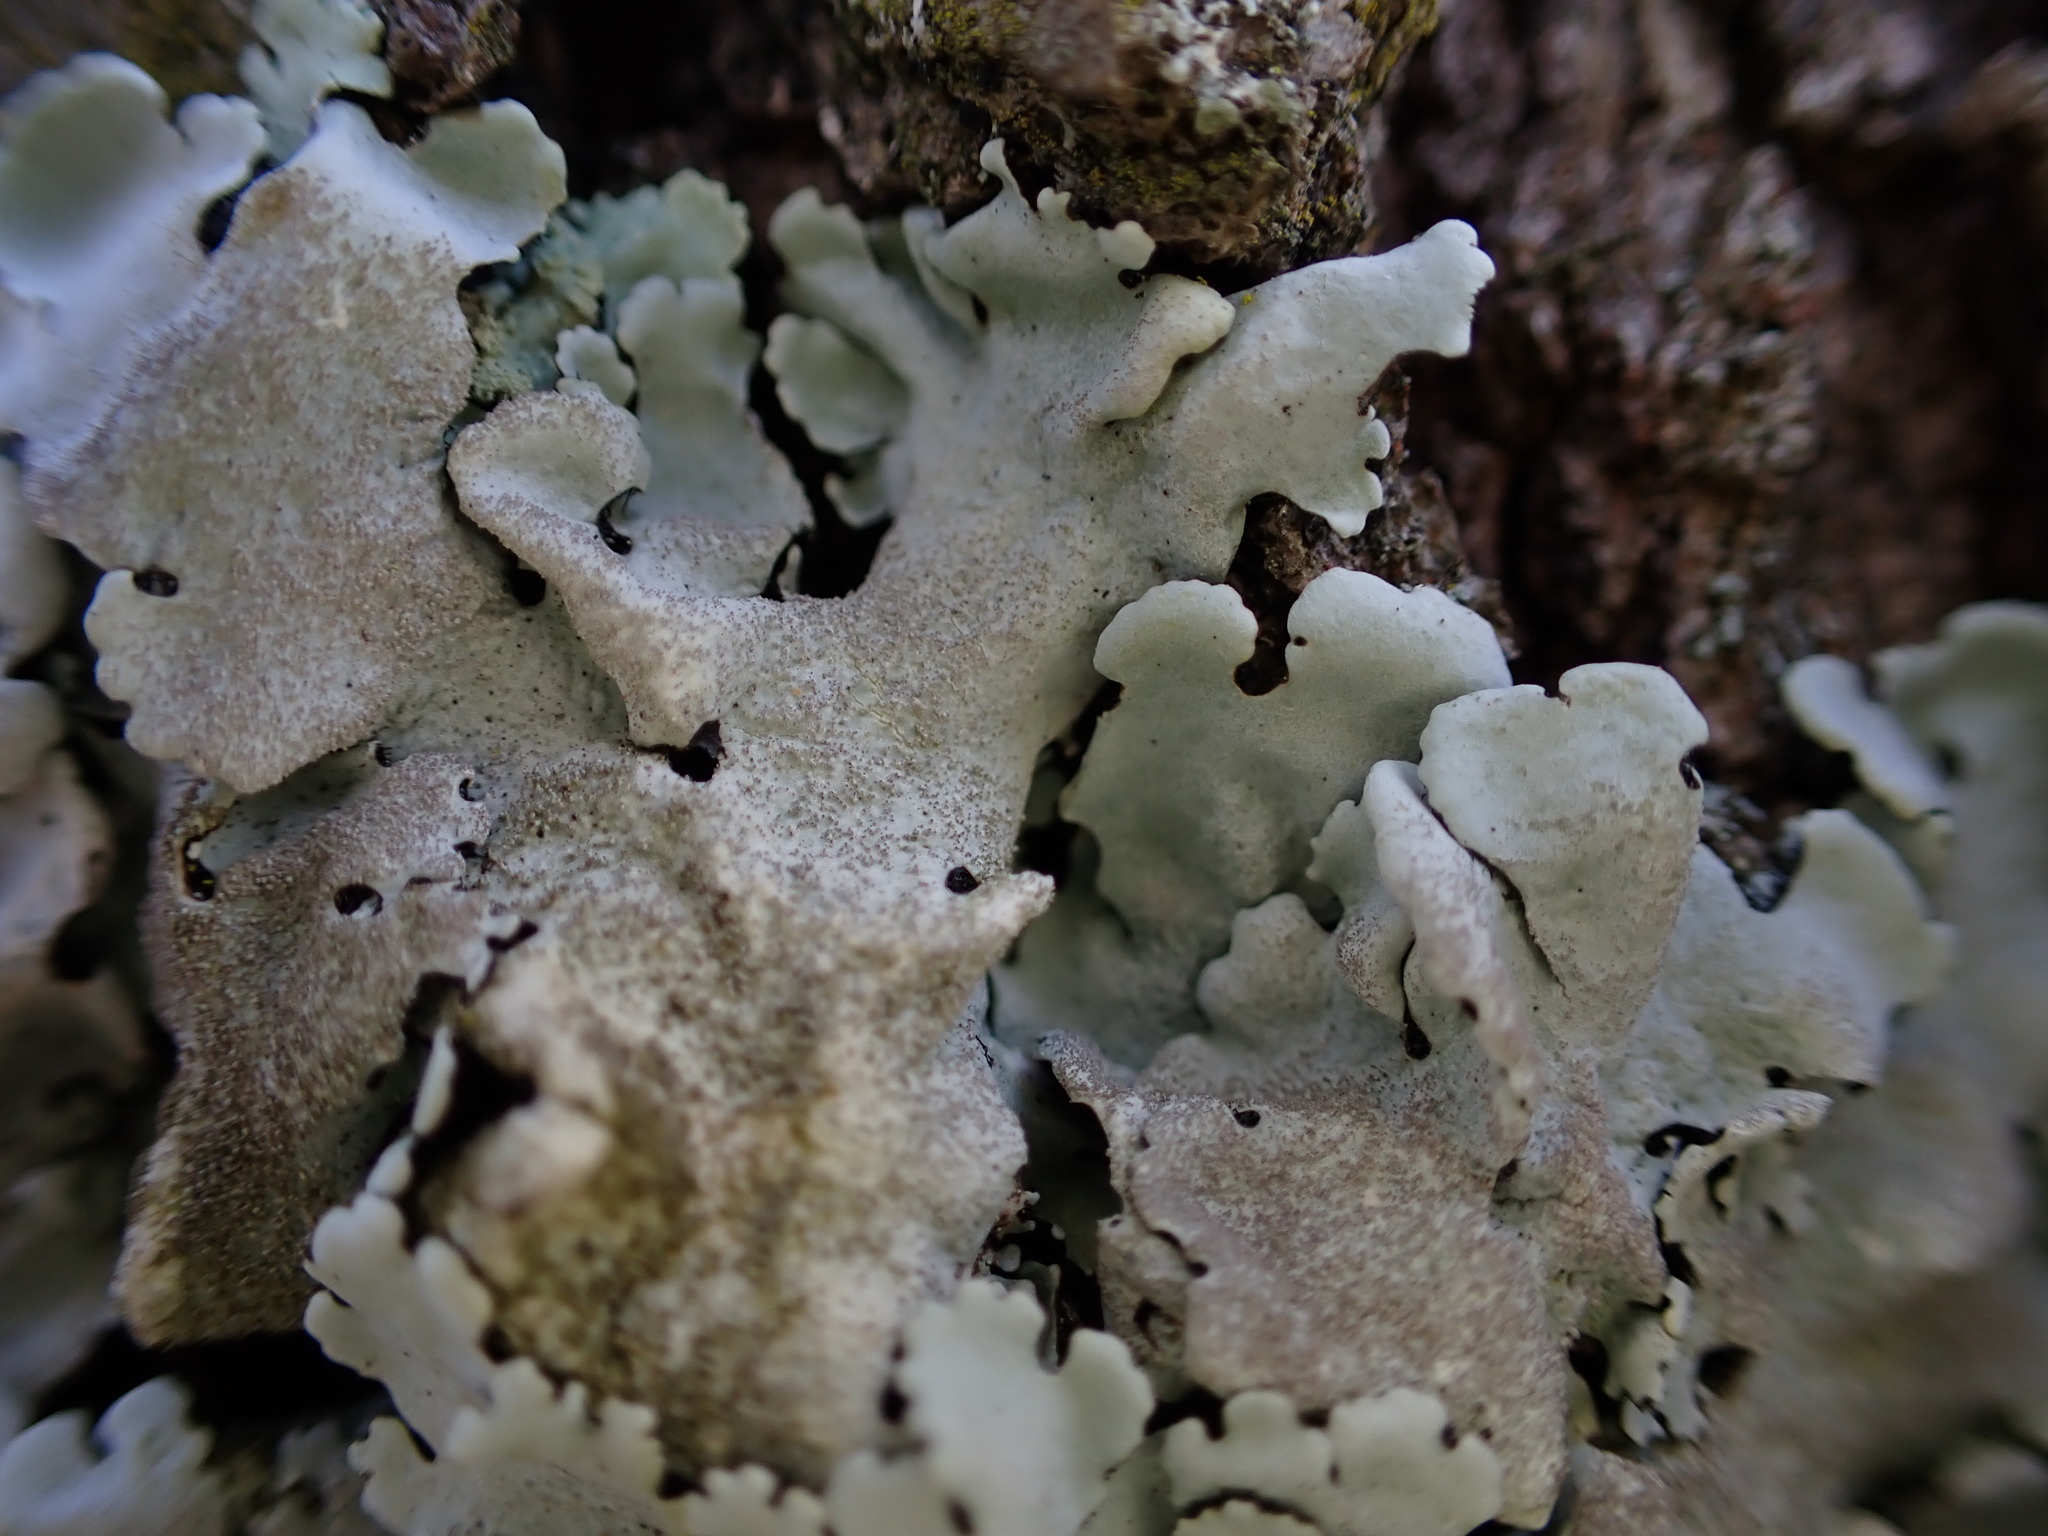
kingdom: Fungi
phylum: Ascomycota
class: Lecanoromycetes
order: Lecanorales
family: Parmeliaceae
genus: Parmelina
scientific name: Parmelina tiliacea
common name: Linden shield lichen
